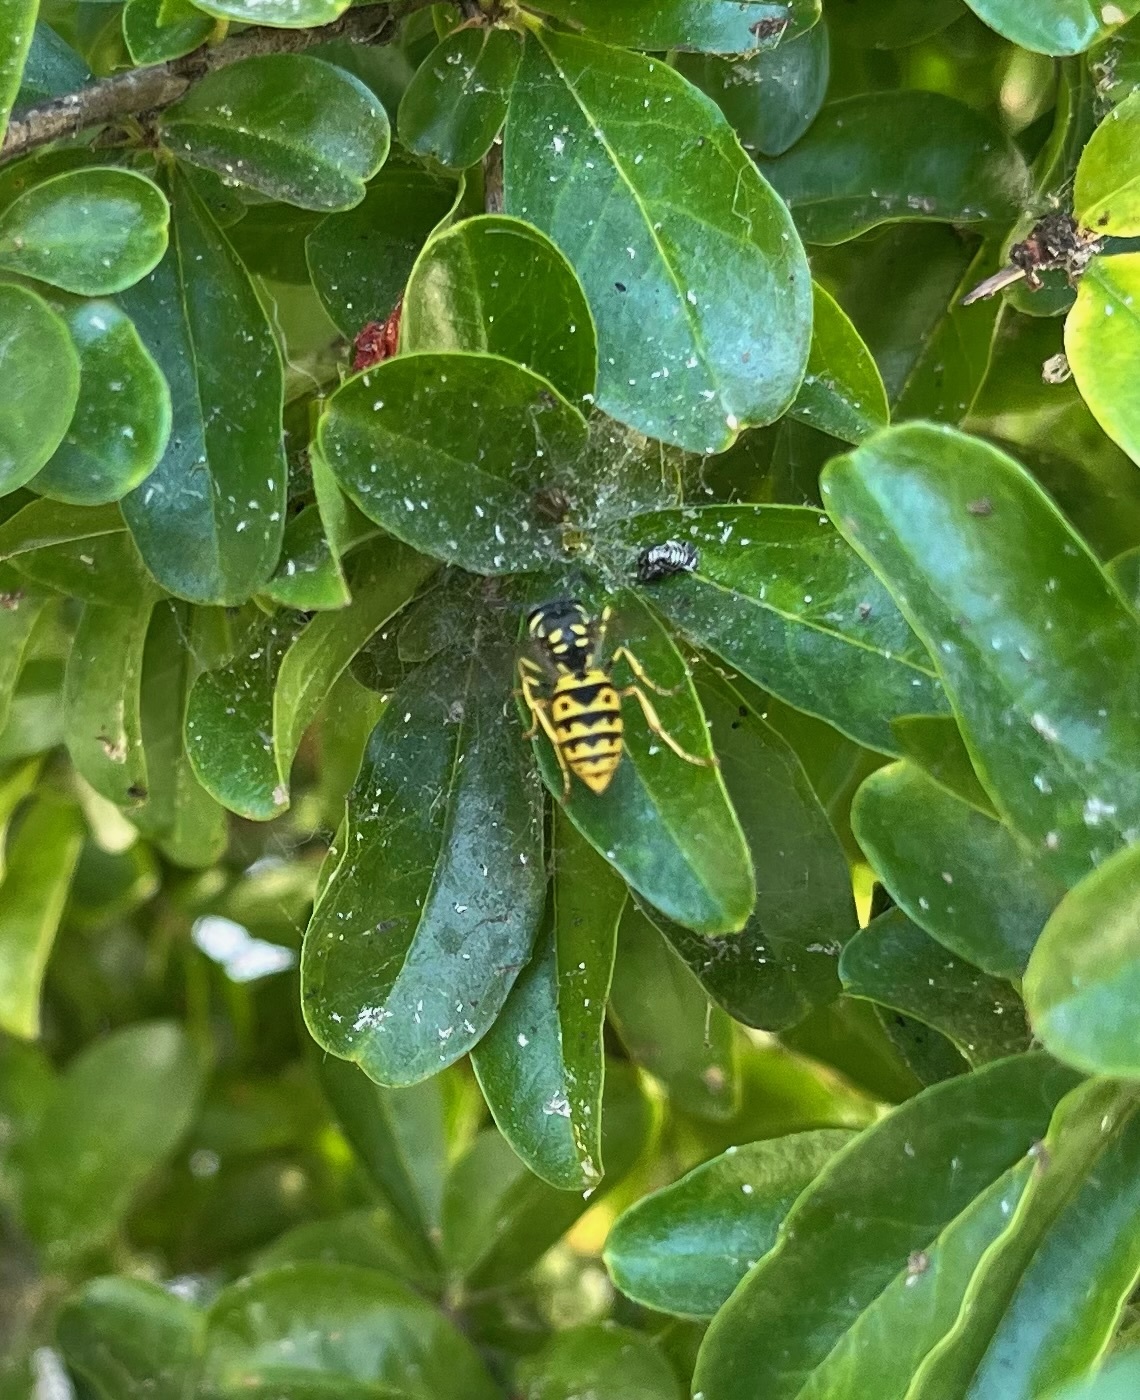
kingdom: Animalia
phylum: Arthropoda
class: Insecta
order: Hymenoptera
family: Vespidae
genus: Vespula
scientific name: Vespula germanica
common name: German wasp
